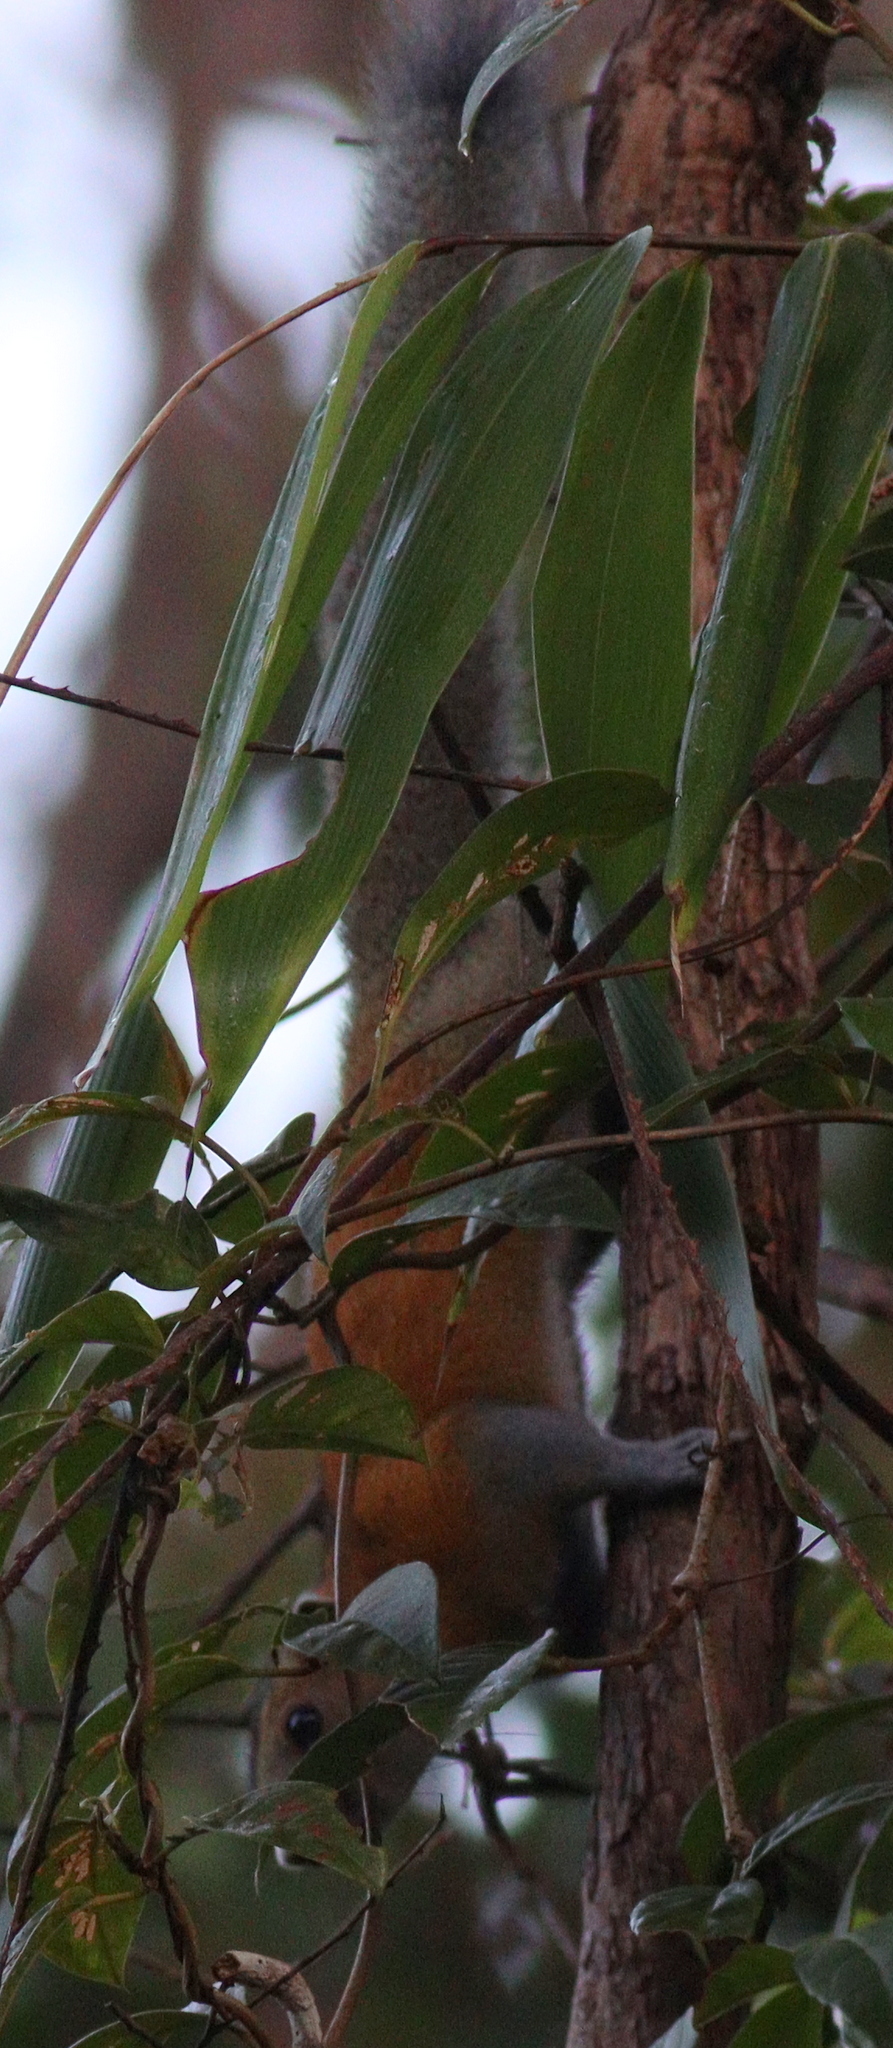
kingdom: Animalia
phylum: Chordata
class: Mammalia
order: Rodentia
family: Sciuridae
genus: Callosciurus
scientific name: Callosciurus caniceps
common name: Gray-bellied squirrel
